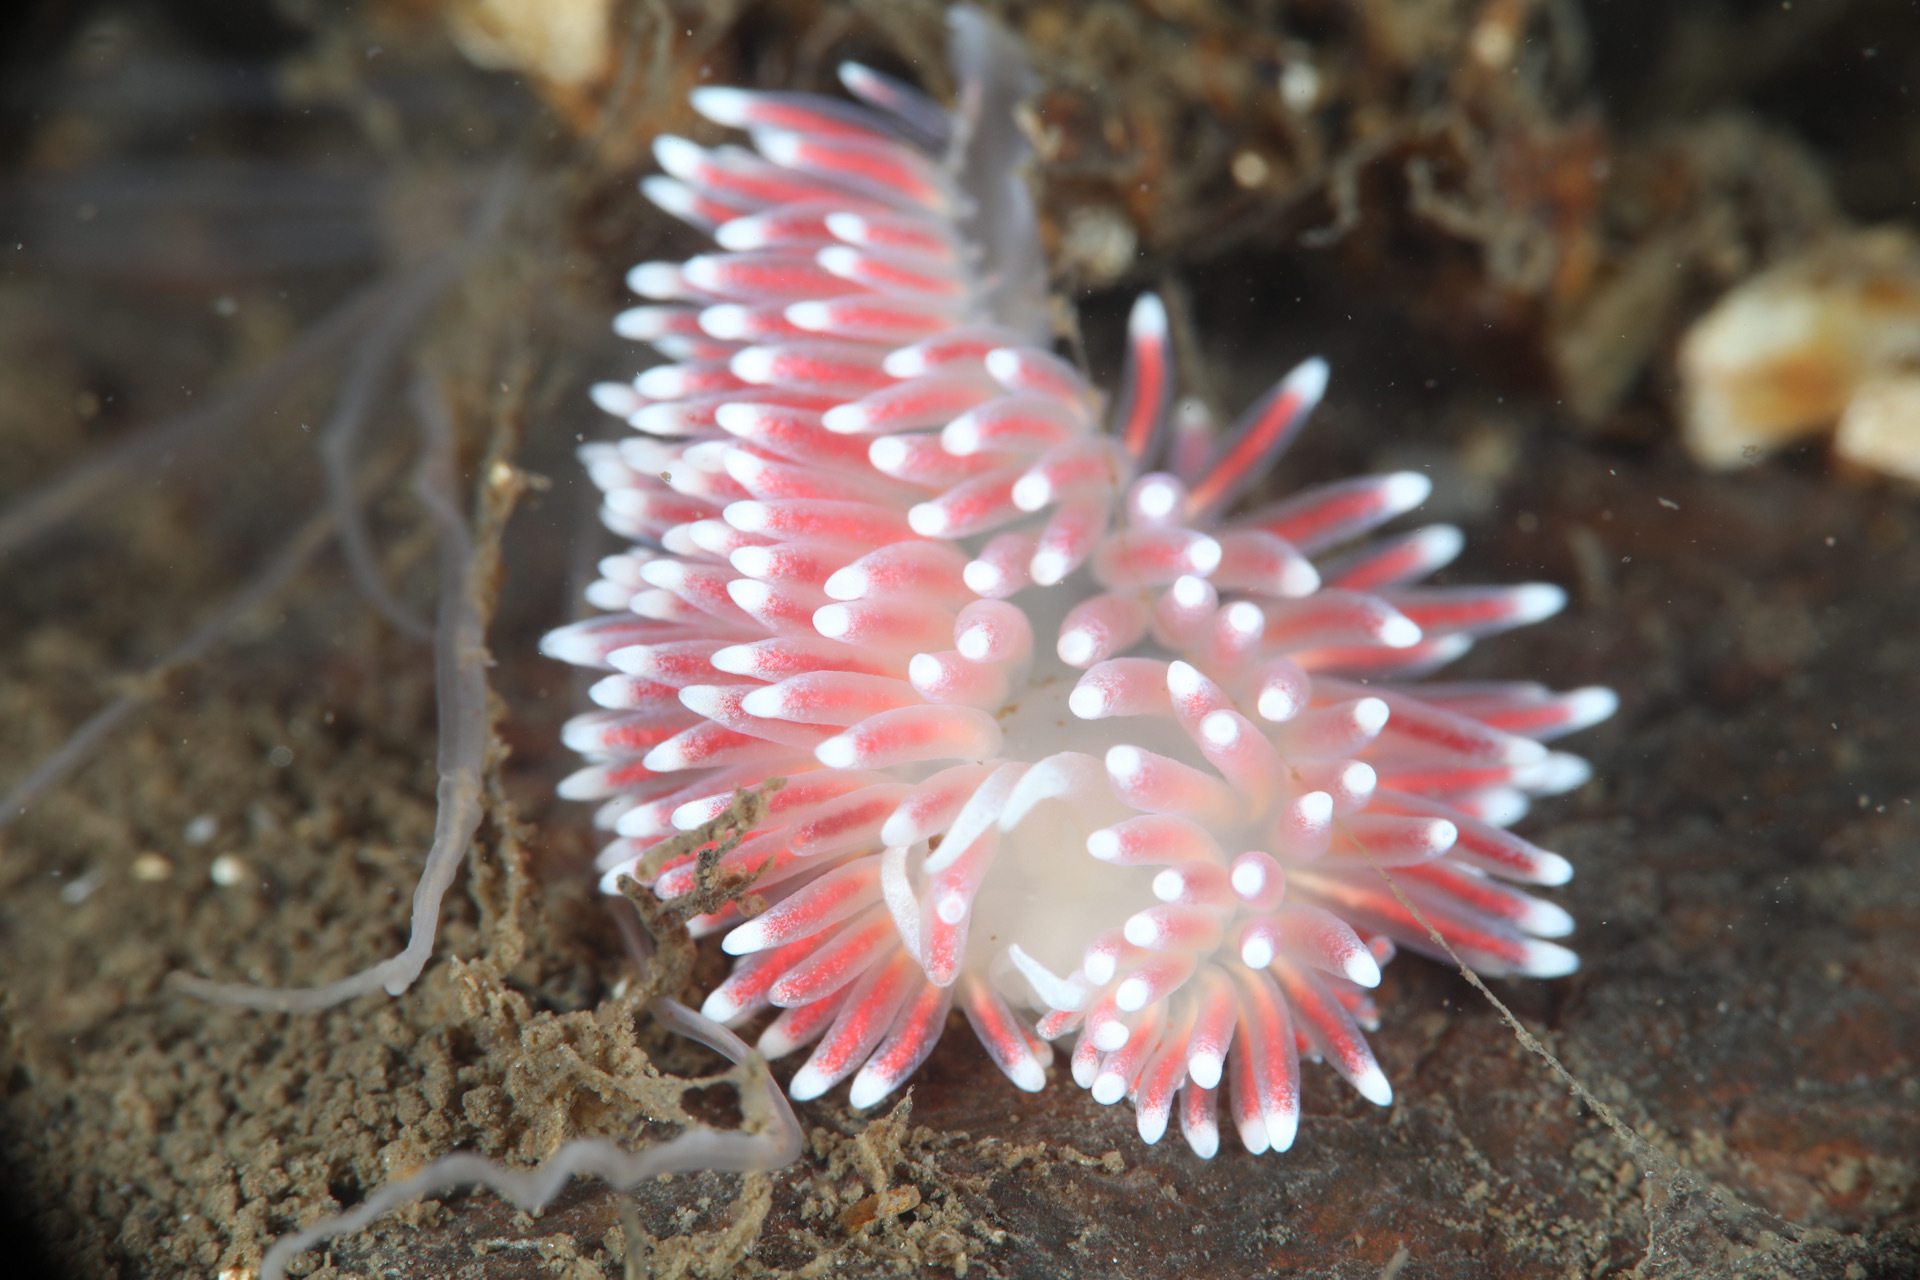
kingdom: Animalia
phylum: Mollusca
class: Gastropoda
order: Nudibranchia
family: Flabellinidae
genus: Carronella
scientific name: Carronella pellucida
